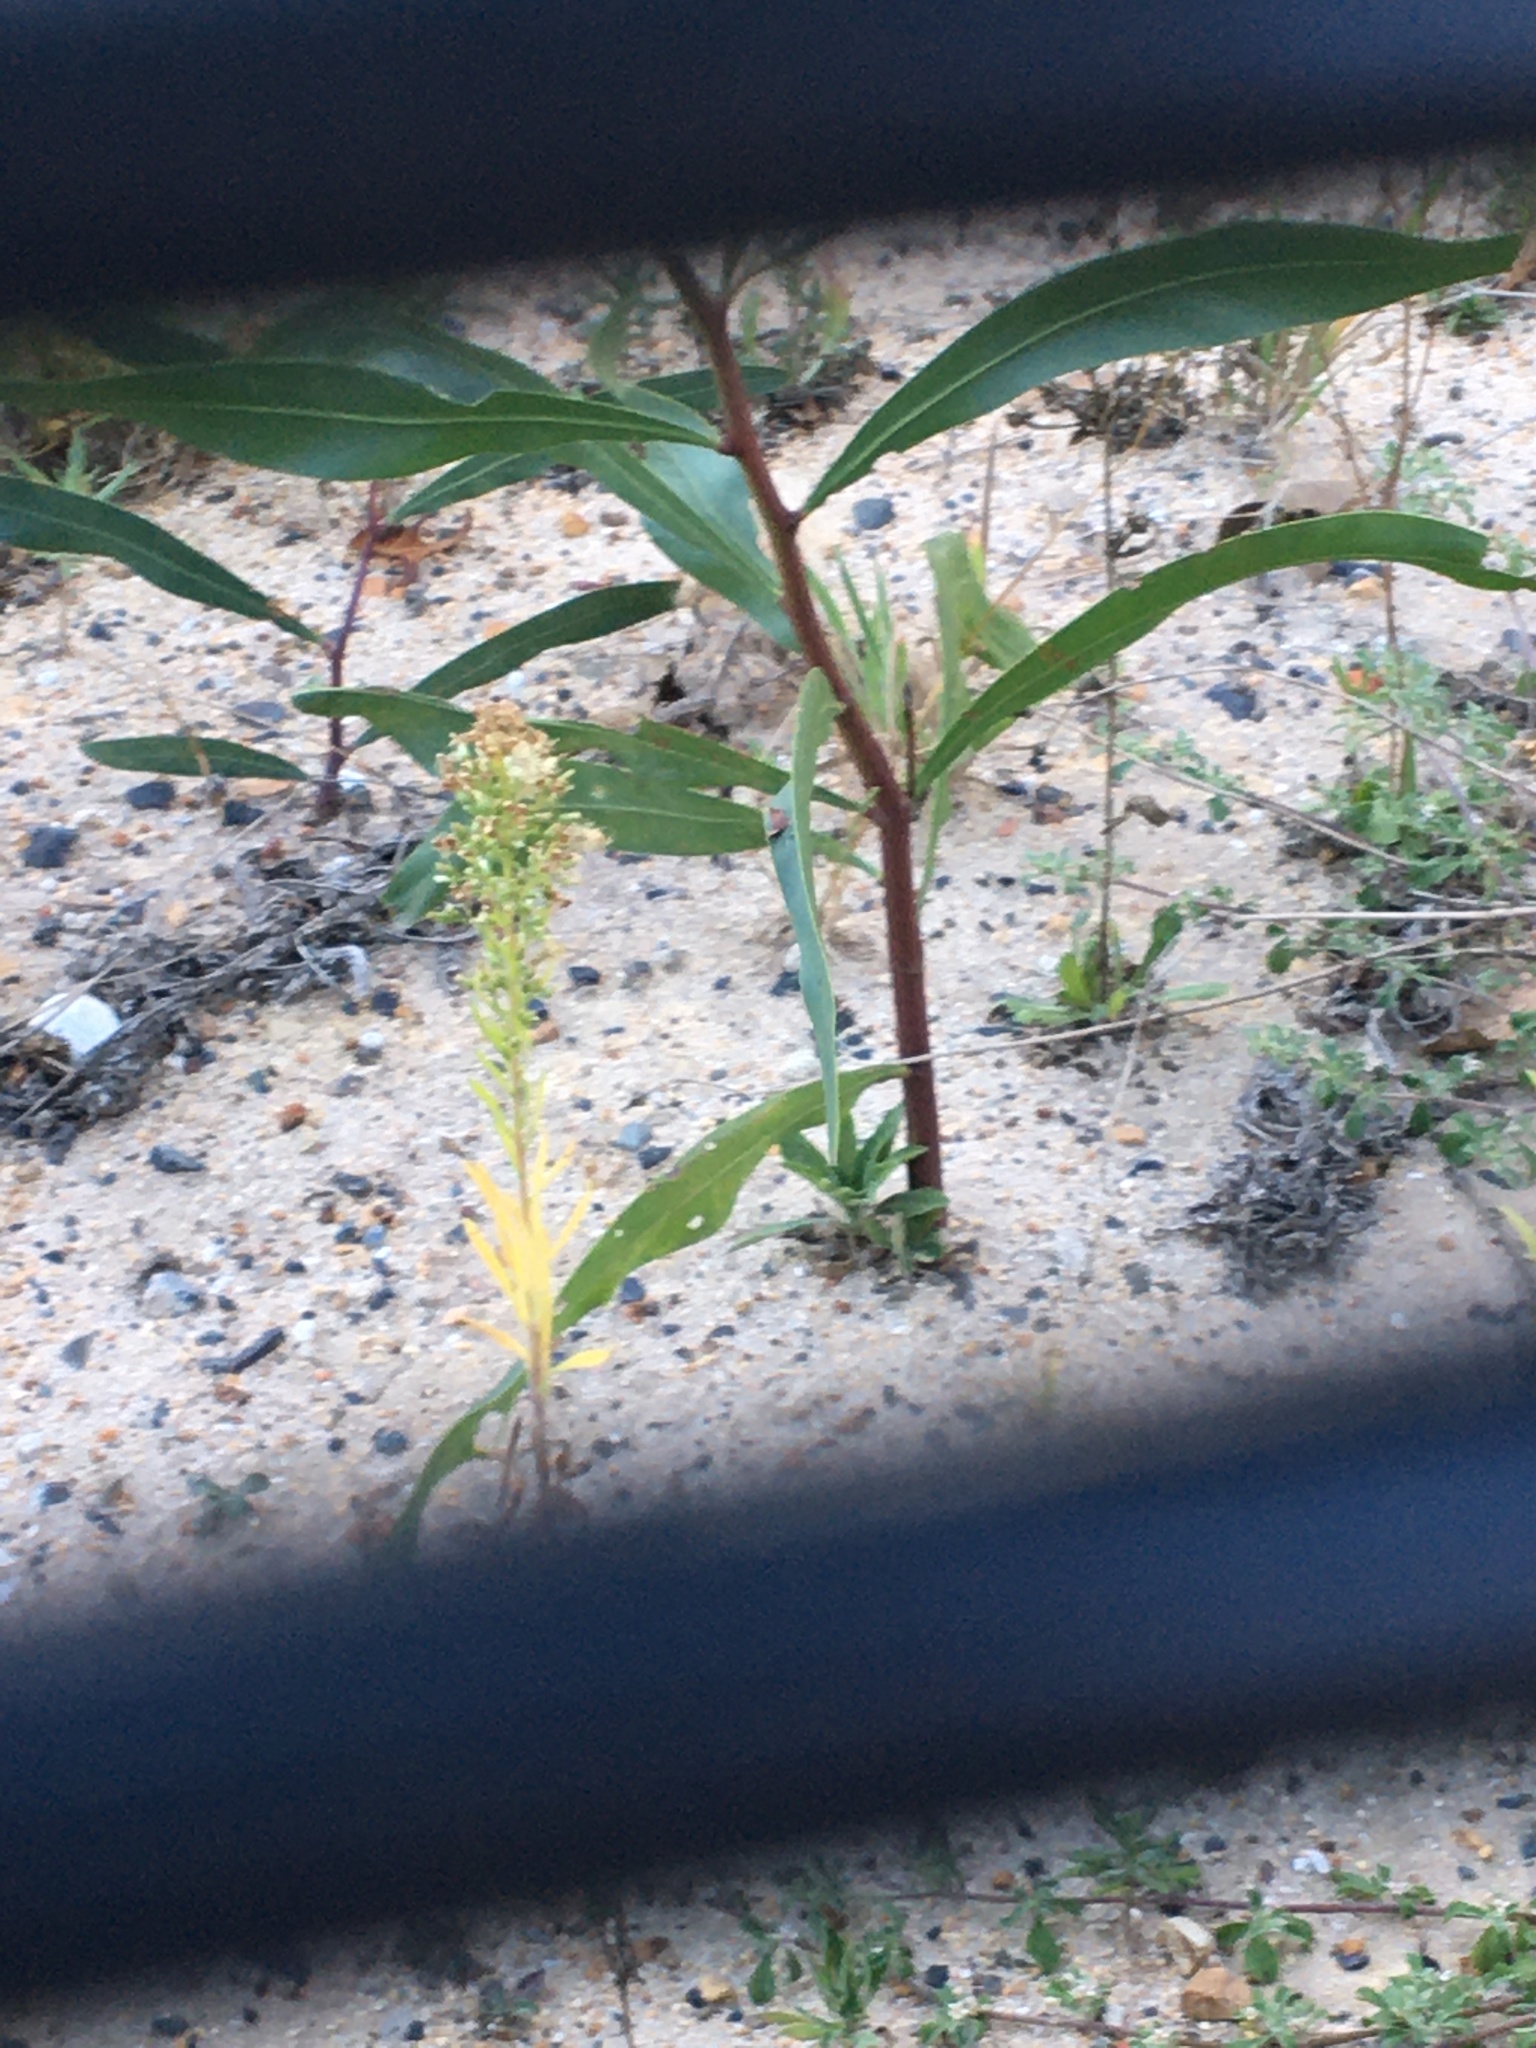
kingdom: Plantae
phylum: Tracheophyta
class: Magnoliopsida
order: Fabales
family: Fabaceae
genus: Acacia
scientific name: Acacia saligna
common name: Orange wattle
